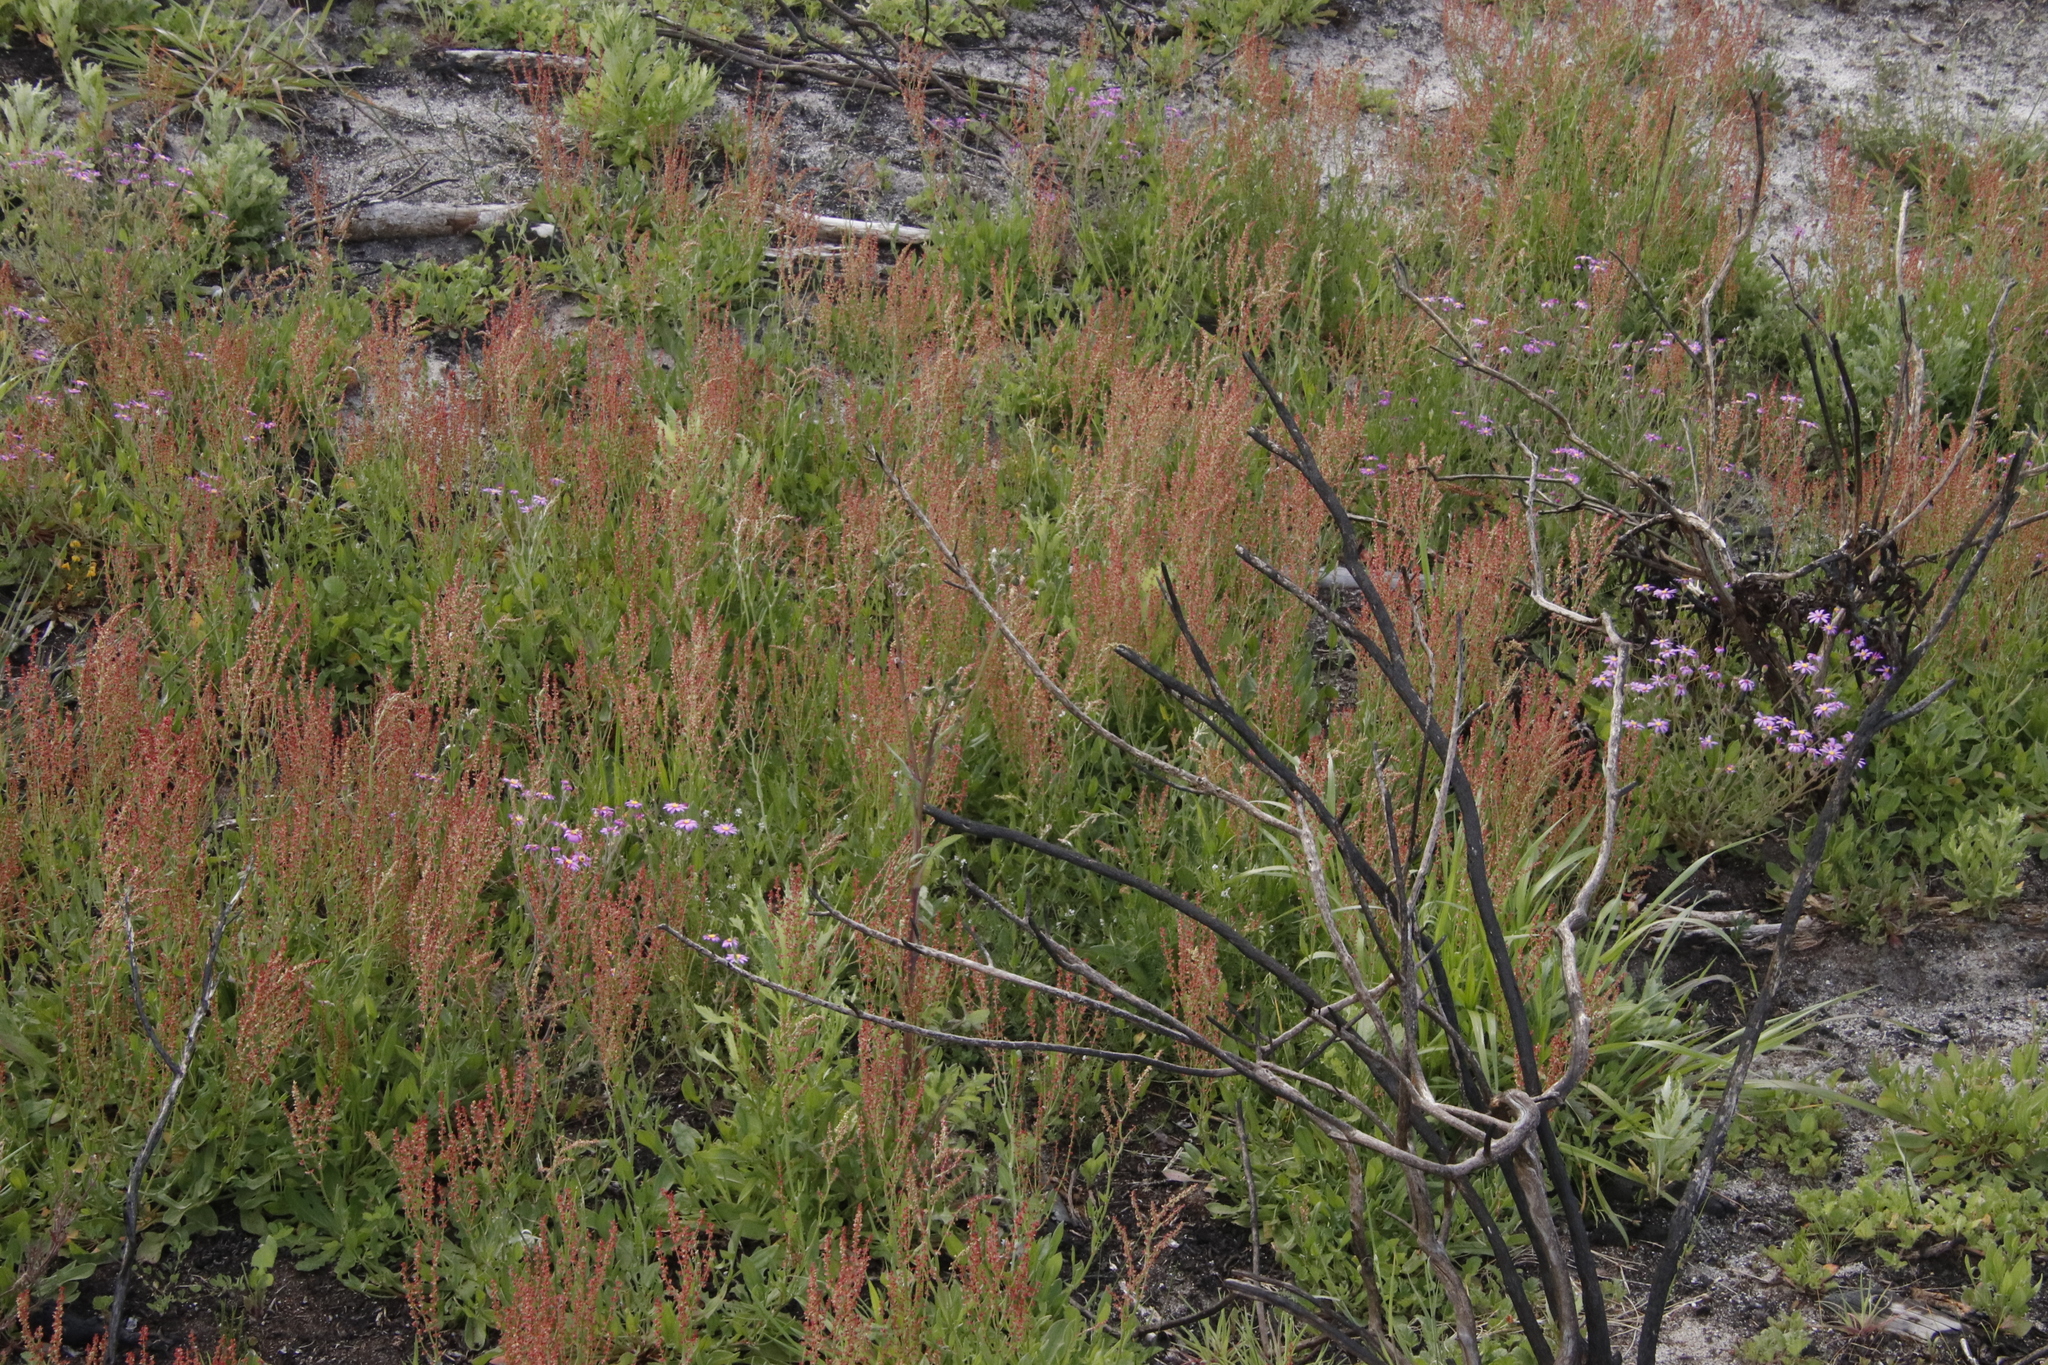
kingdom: Plantae
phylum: Tracheophyta
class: Magnoliopsida
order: Caryophyllales
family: Polygonaceae
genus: Rumex
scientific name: Rumex acetosella
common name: Common sheep sorrel
